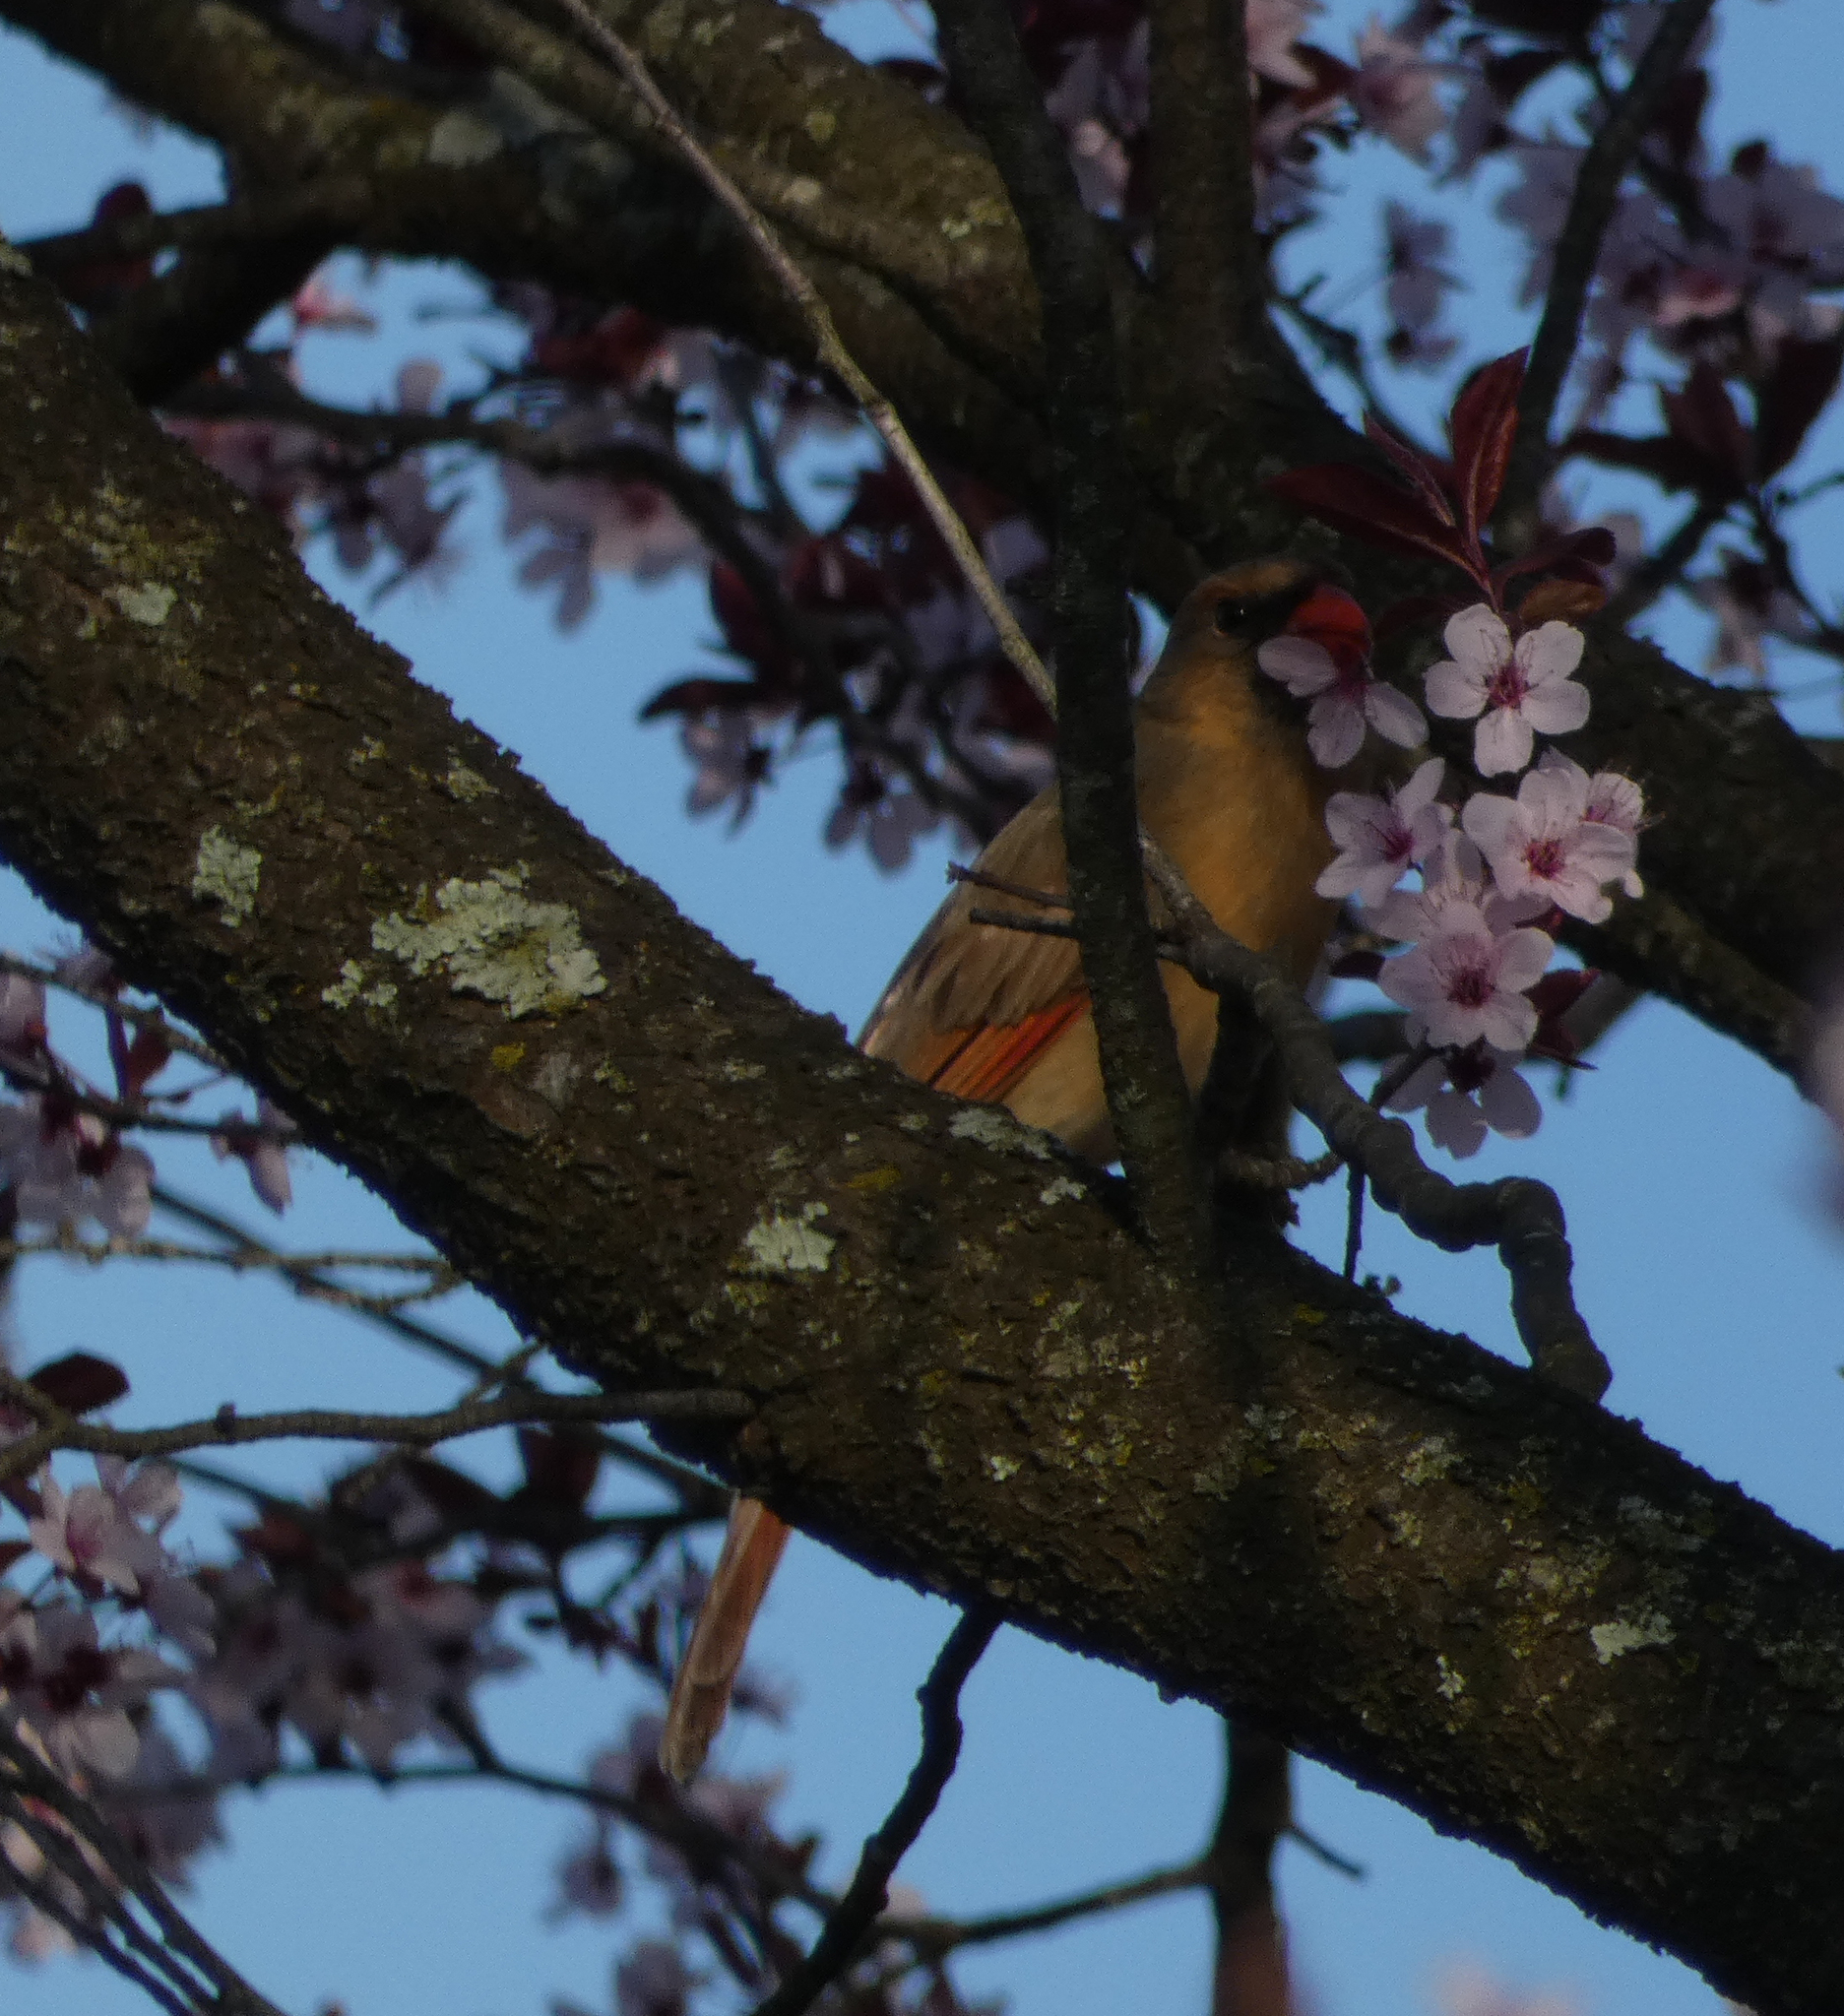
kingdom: Animalia
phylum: Chordata
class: Aves
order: Passeriformes
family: Cardinalidae
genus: Cardinalis
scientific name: Cardinalis cardinalis
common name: Northern cardinal
